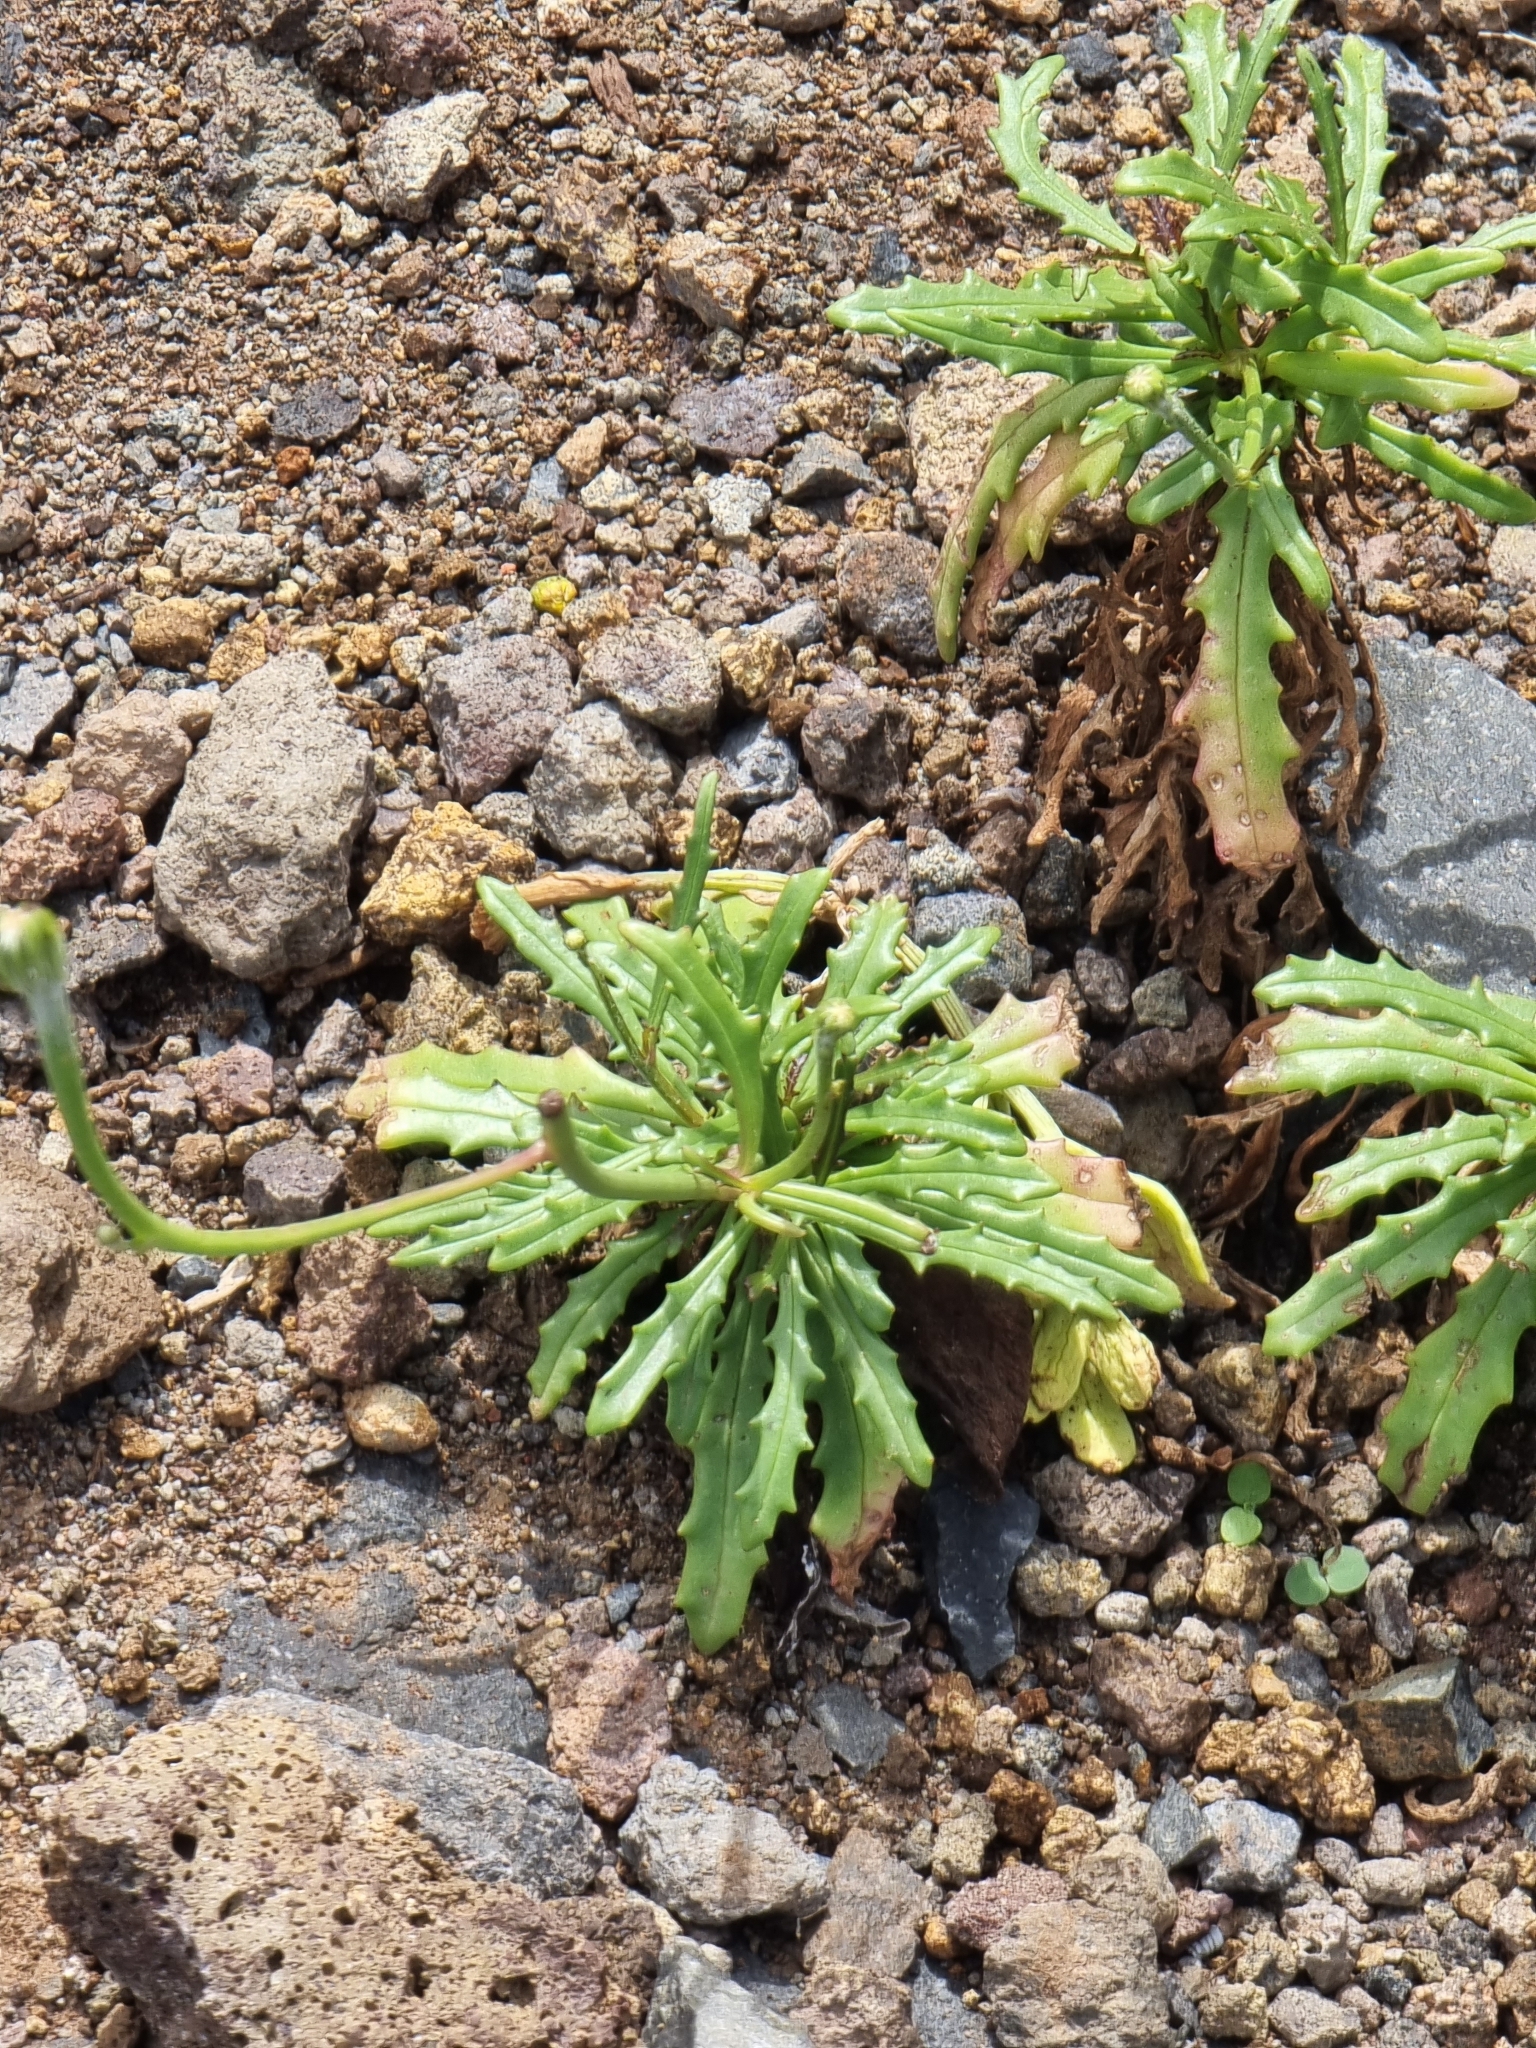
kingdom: Plantae
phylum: Tracheophyta
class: Magnoliopsida
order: Asterales
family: Asteraceae
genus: Tolpis
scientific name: Tolpis succulenta
